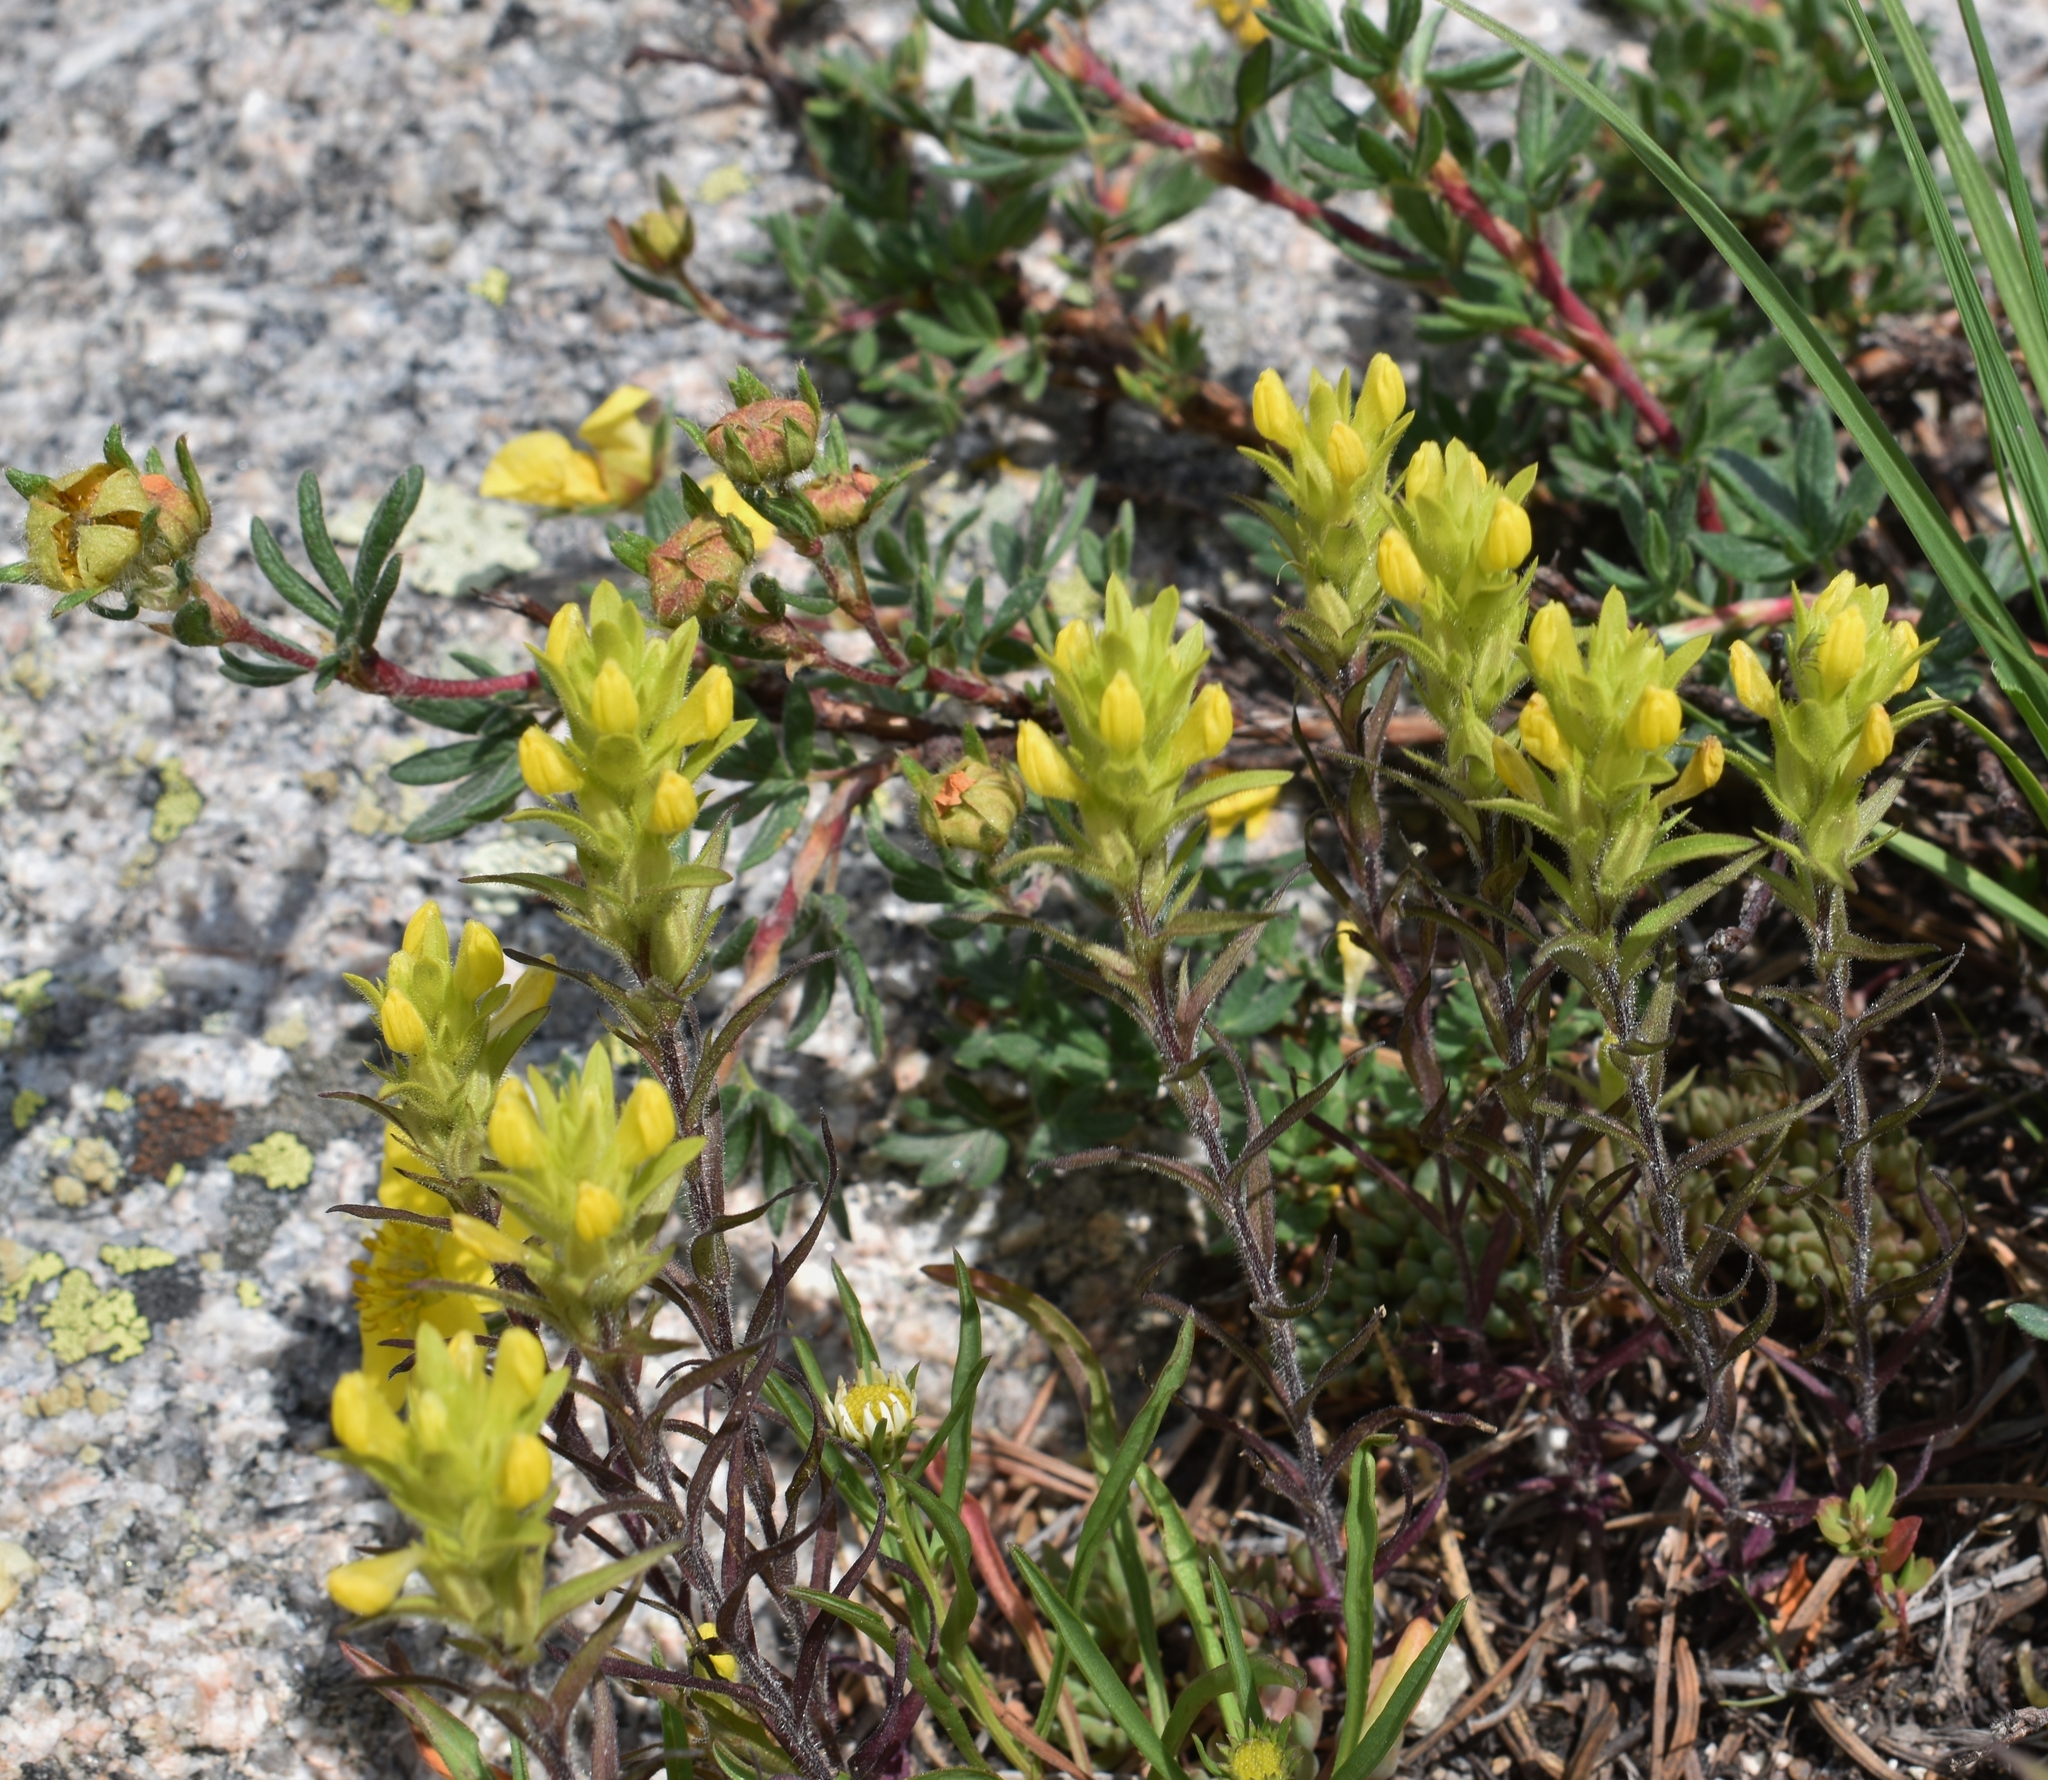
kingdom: Plantae
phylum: Tracheophyta
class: Magnoliopsida
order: Lamiales
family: Orobanchaceae
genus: Orthocarpus
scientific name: Orthocarpus luteus
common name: Golden-tongue owl's-clover
